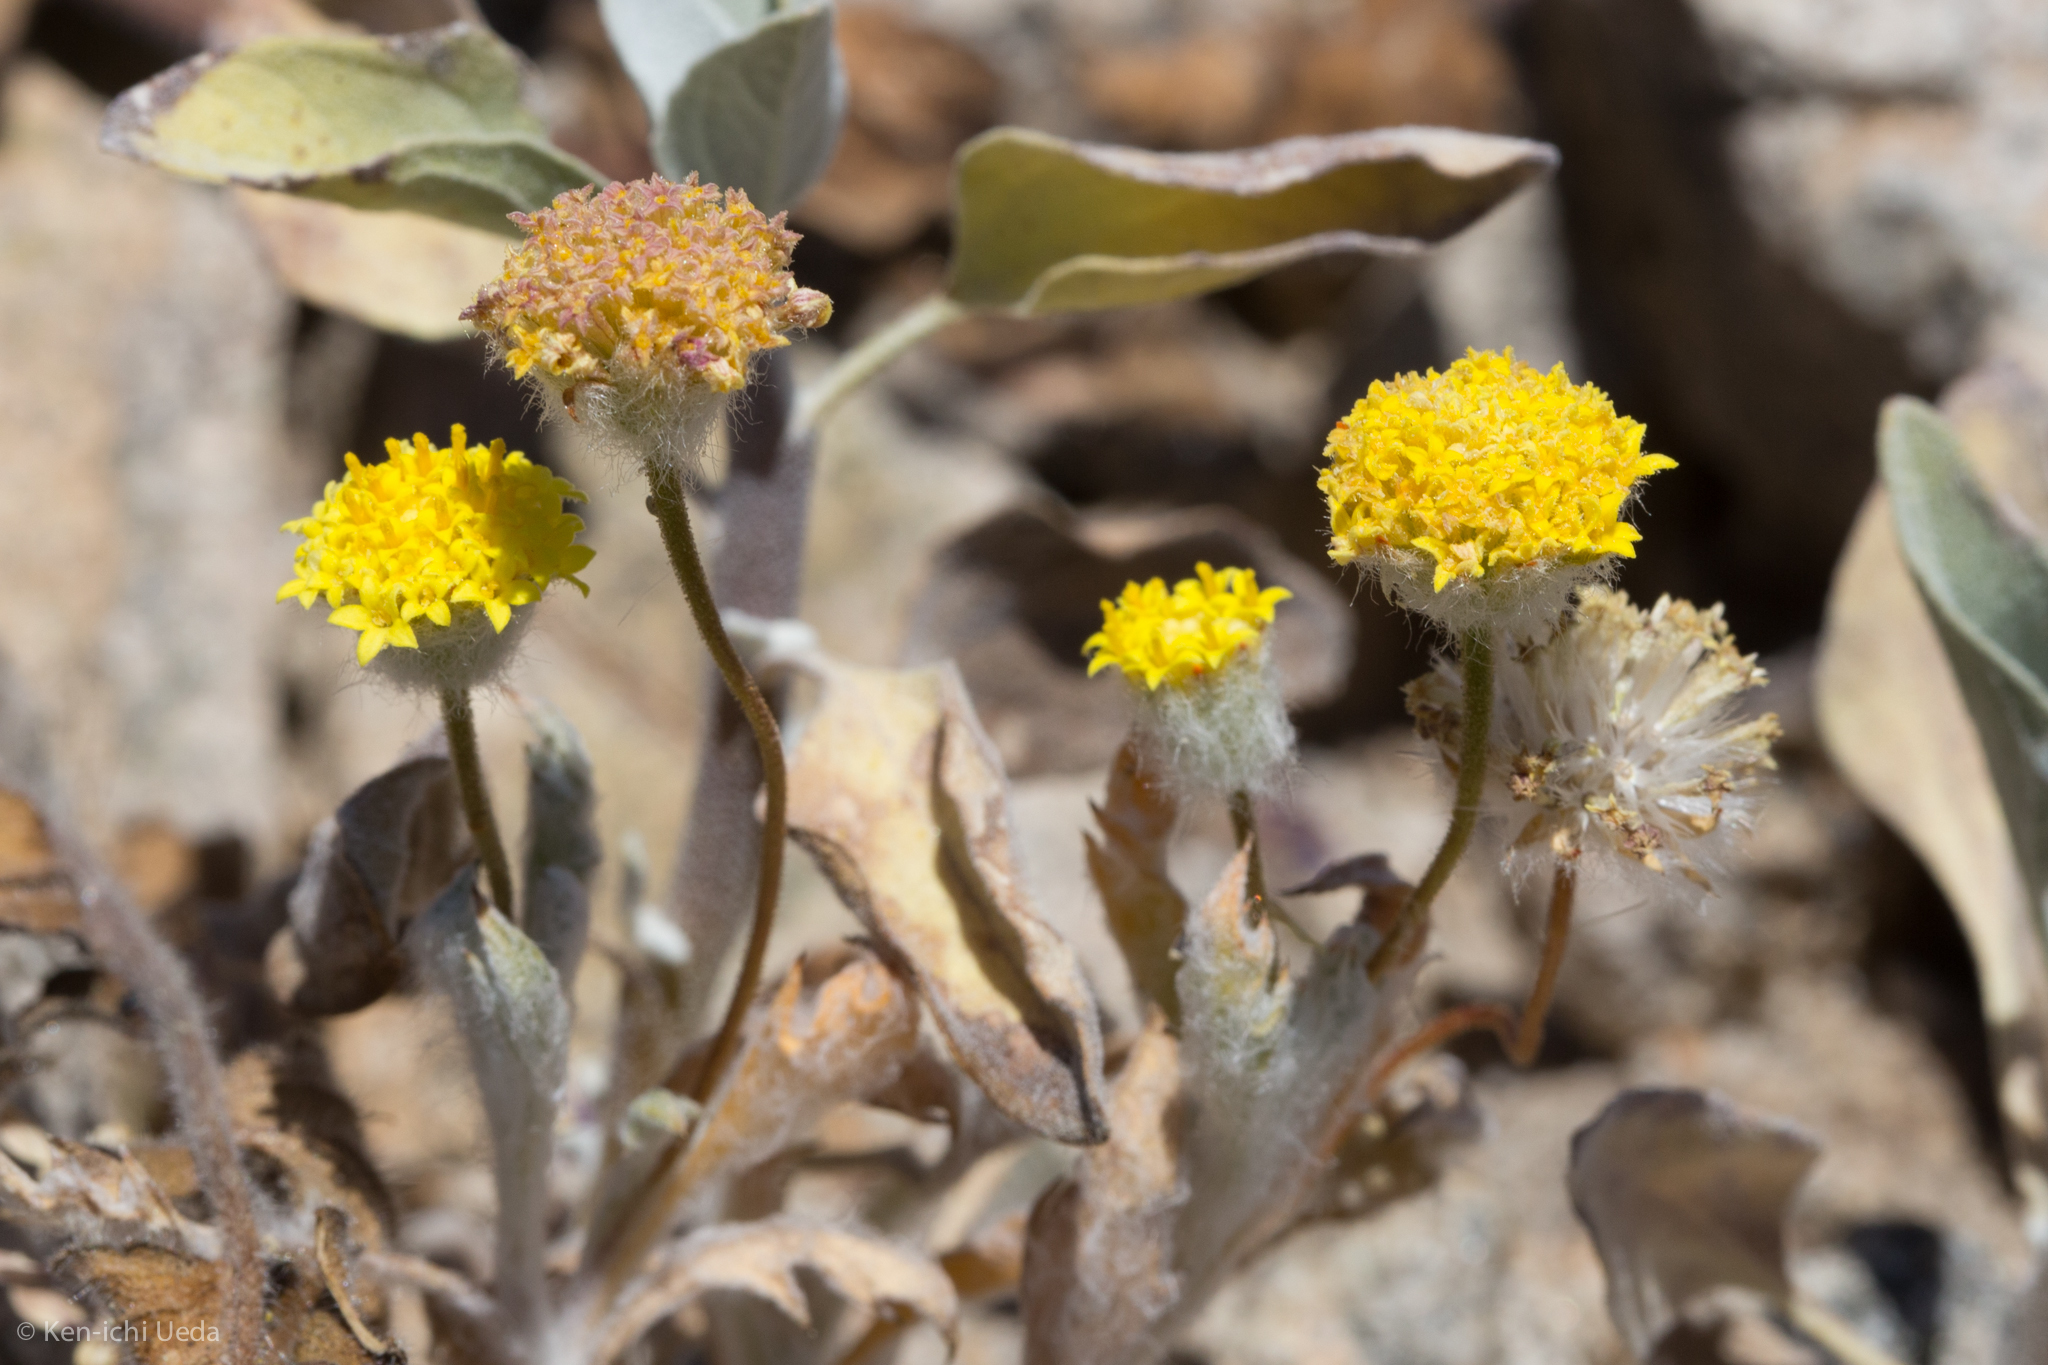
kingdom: Plantae
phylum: Tracheophyta
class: Magnoliopsida
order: Asterales
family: Asteraceae
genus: Trichoptilium
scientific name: Trichoptilium incisum
